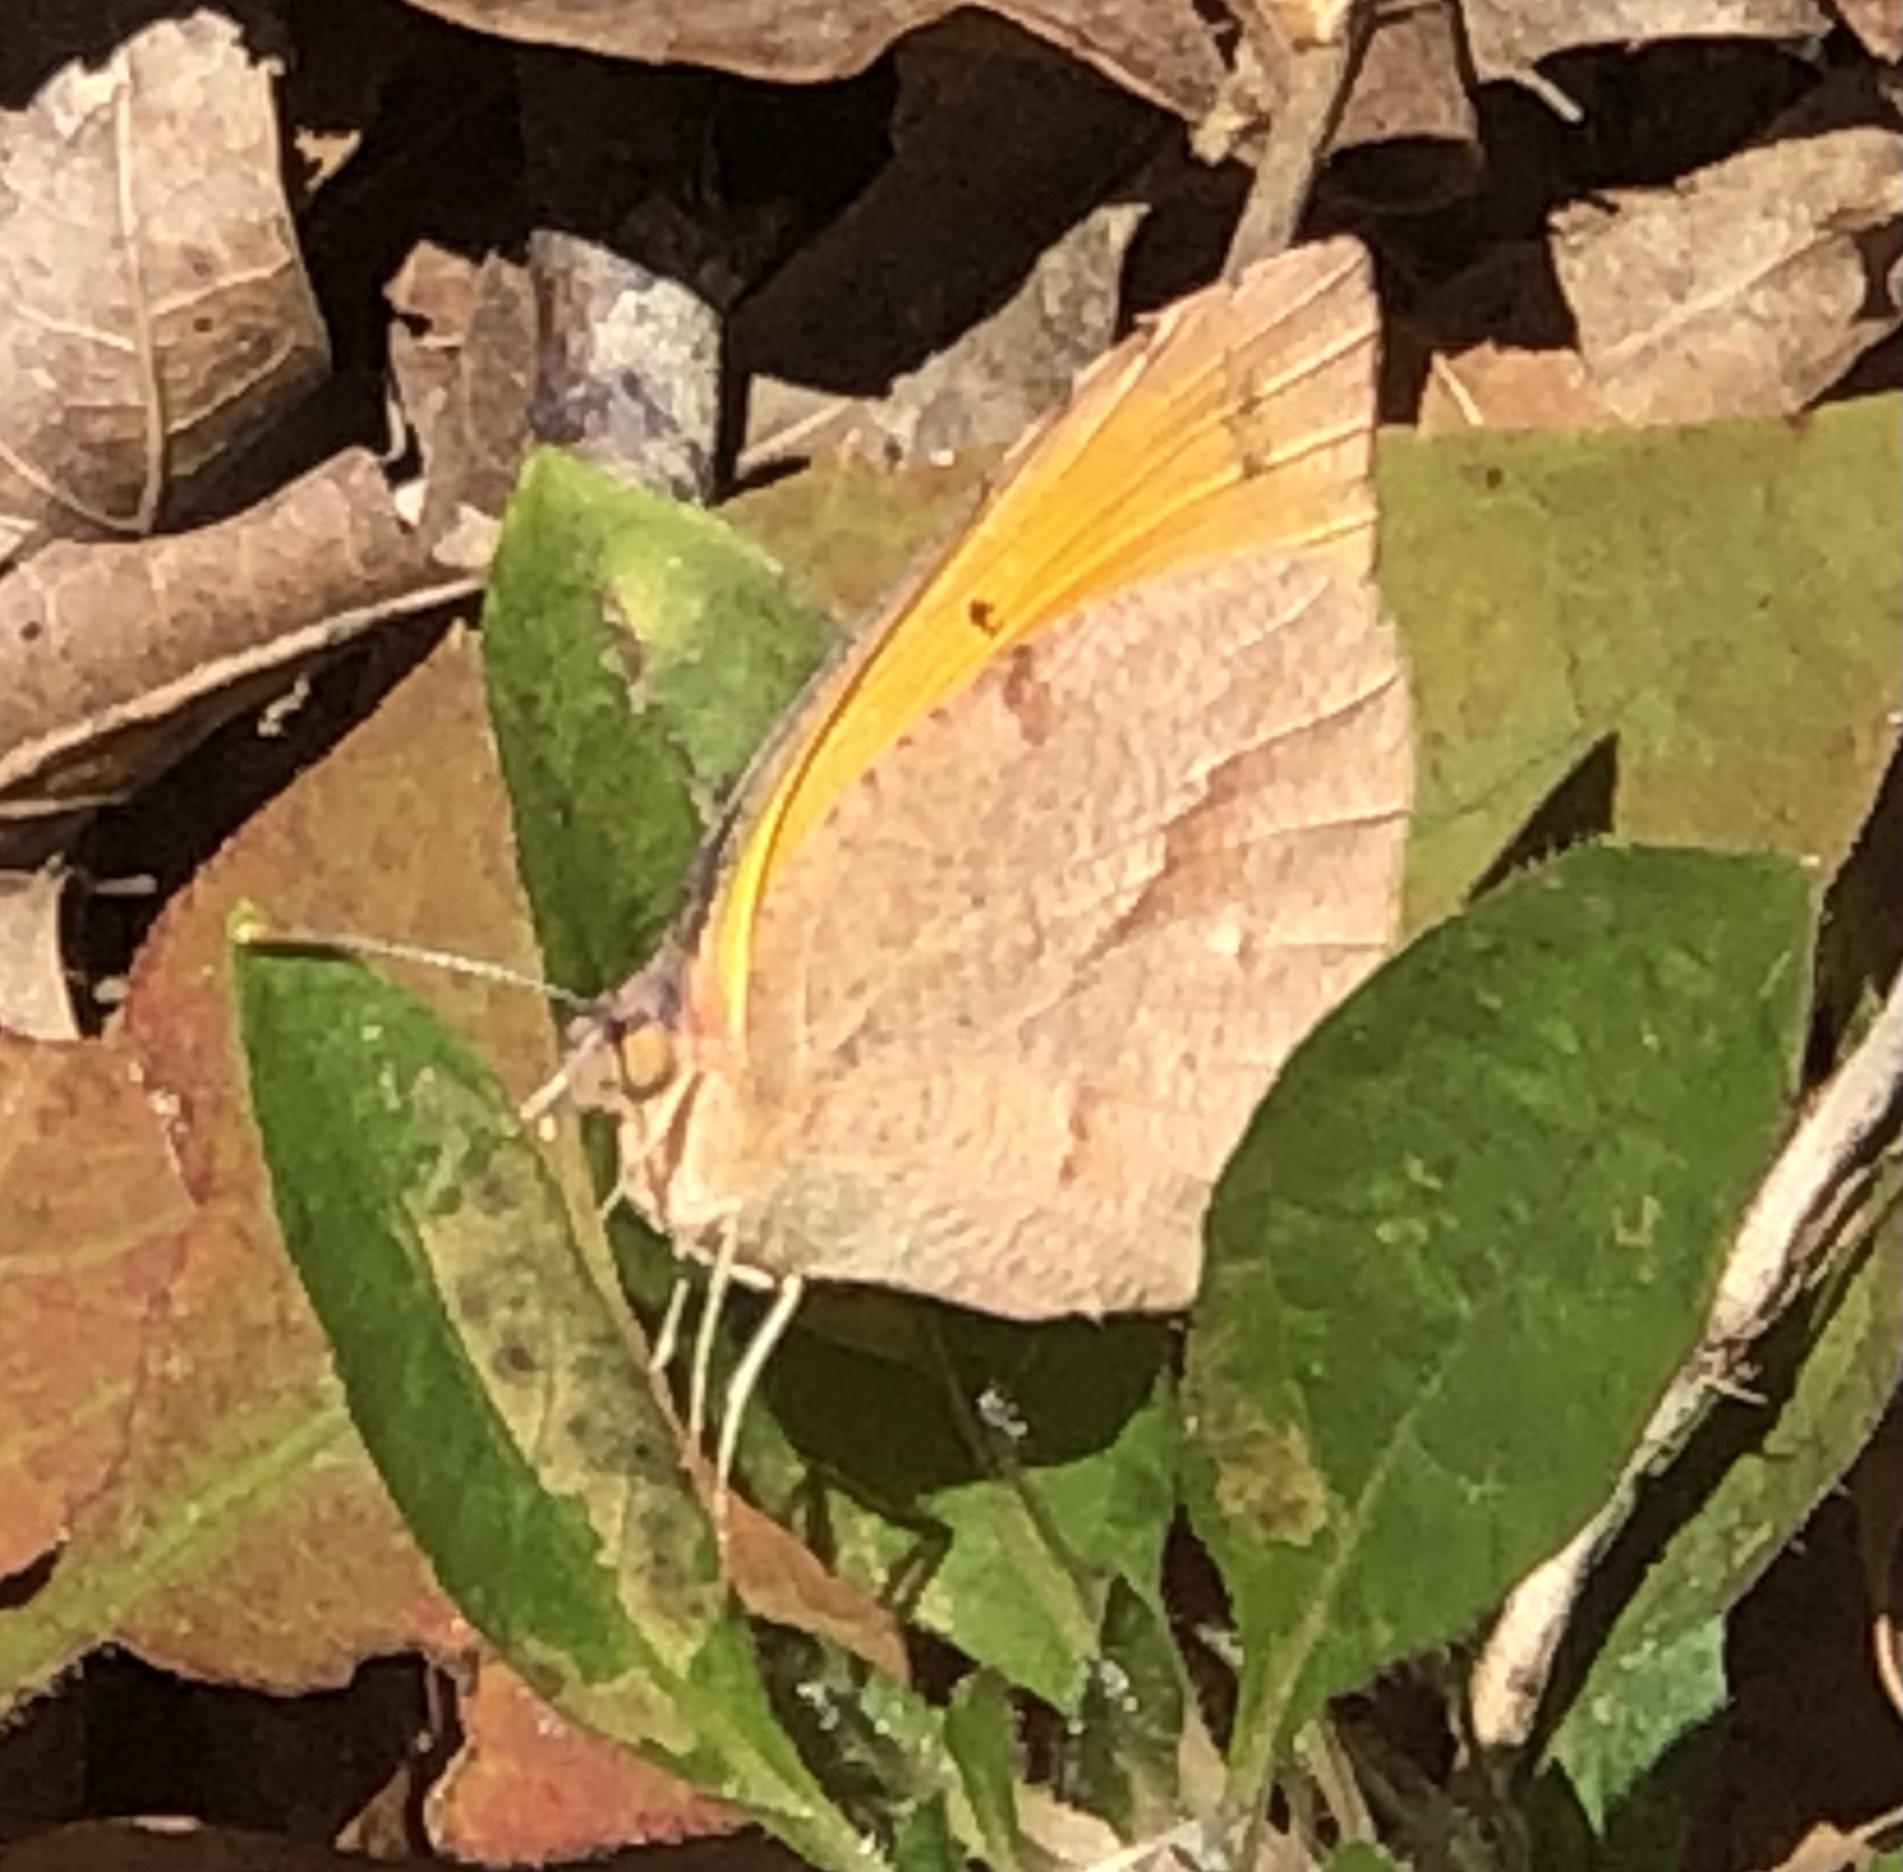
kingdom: Animalia
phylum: Arthropoda
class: Insecta
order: Lepidoptera
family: Pieridae
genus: Abaeis
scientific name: Abaeis nicippe
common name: Sleepy orange
